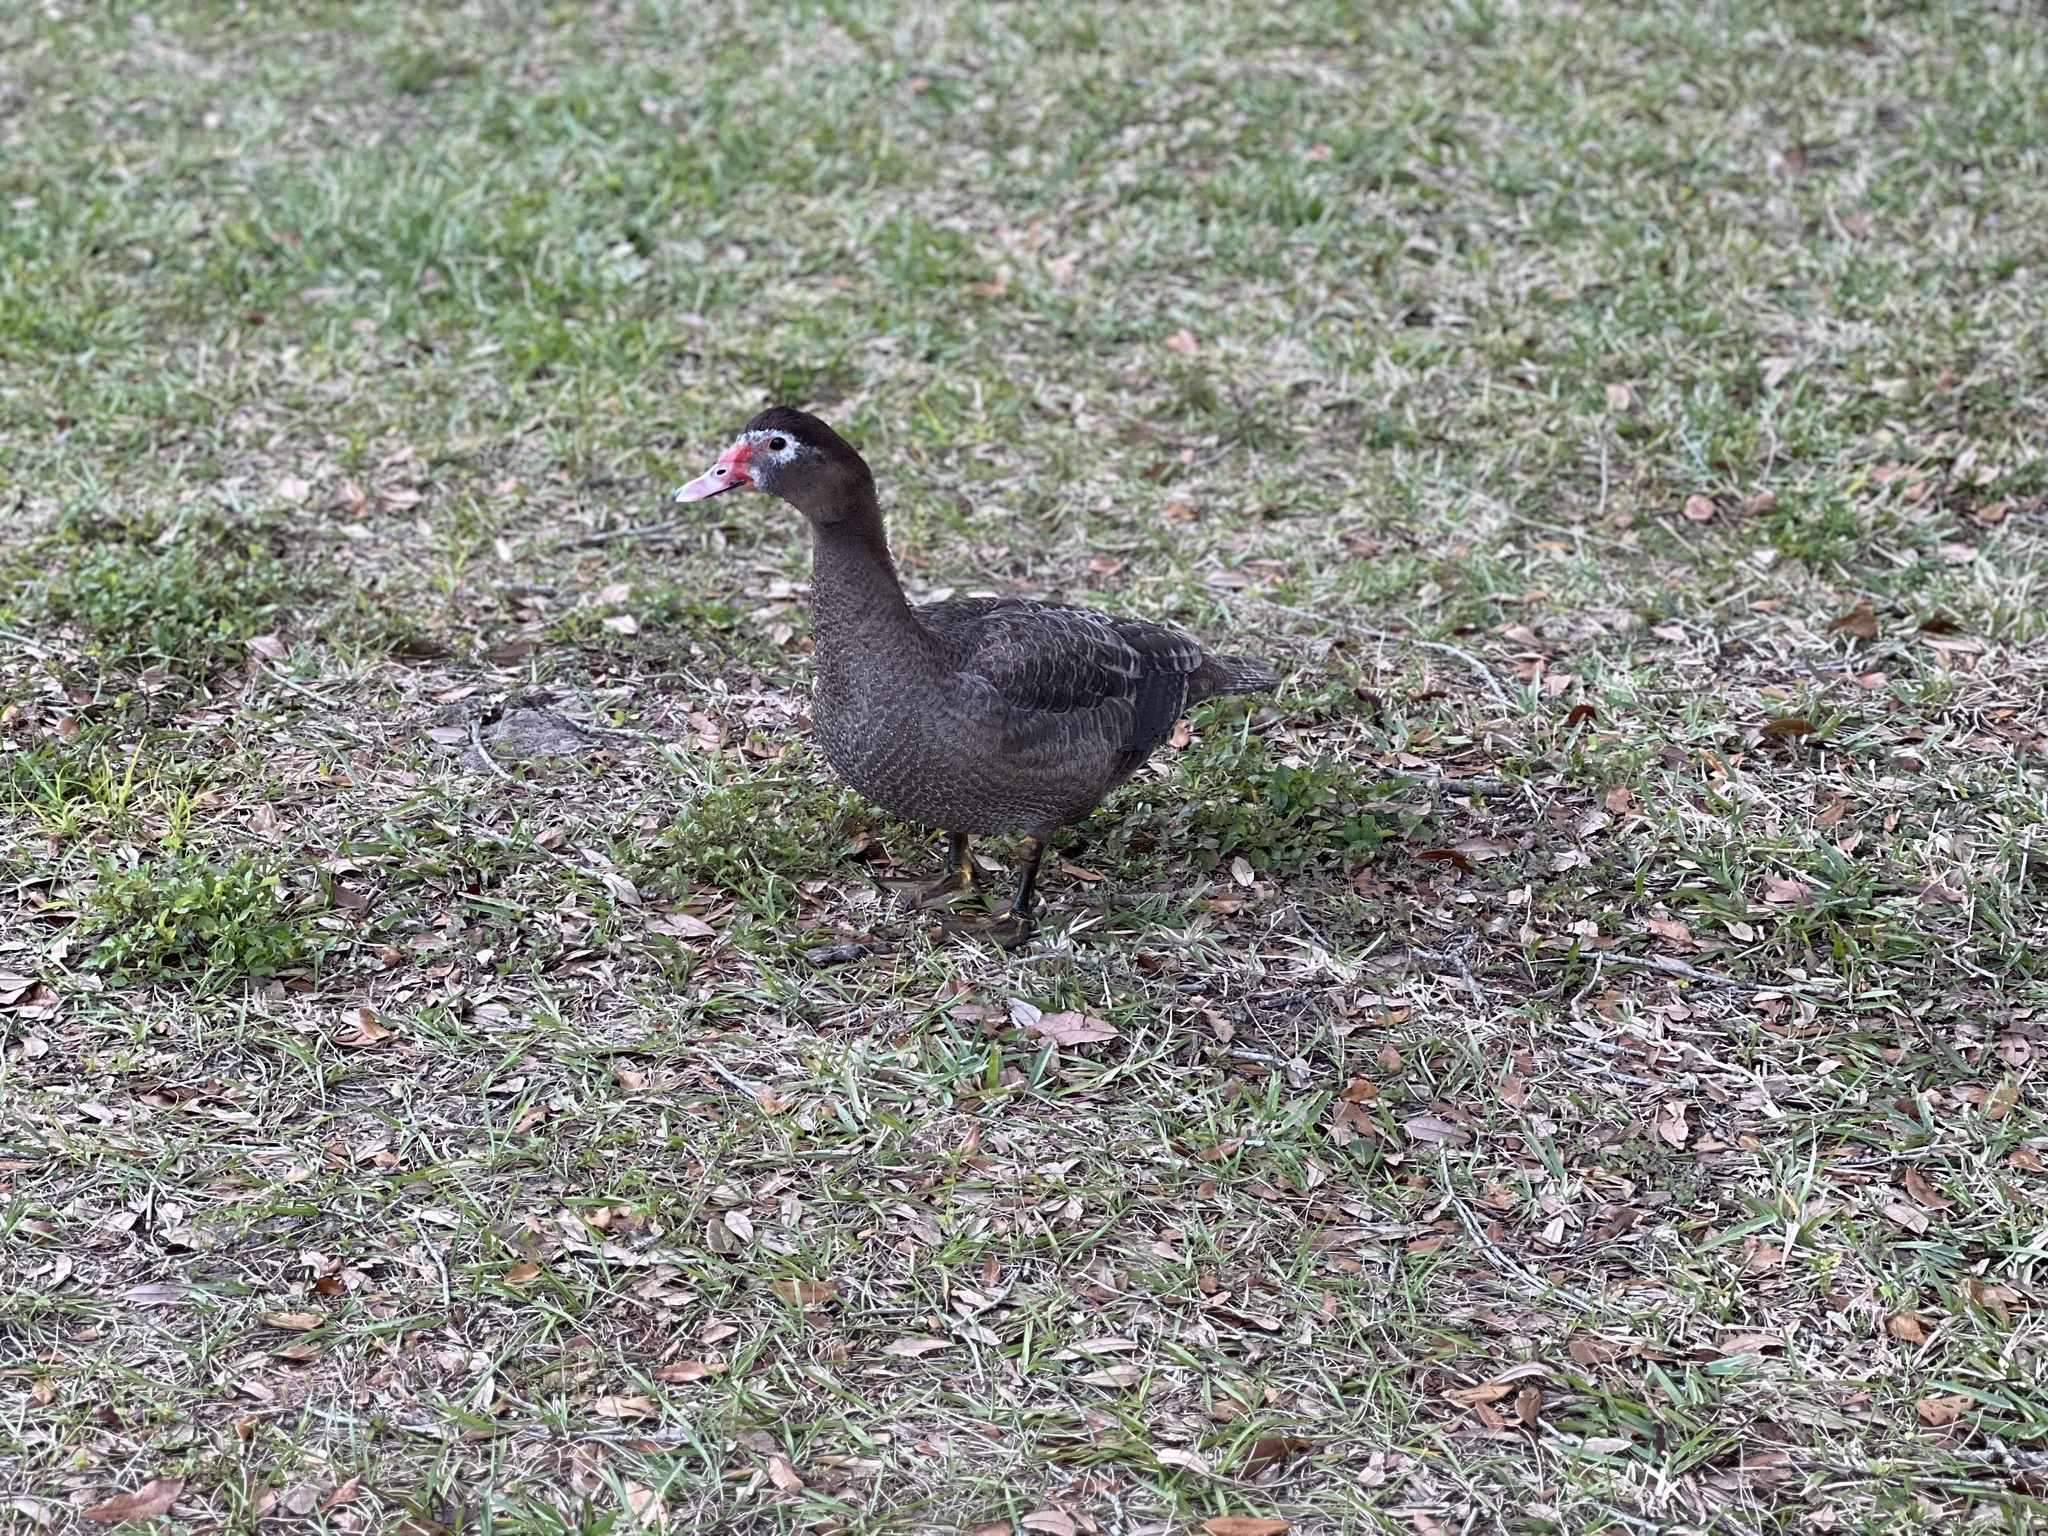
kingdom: Animalia
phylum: Chordata
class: Aves
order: Anseriformes
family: Anatidae
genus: Cairina
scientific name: Cairina moschata
